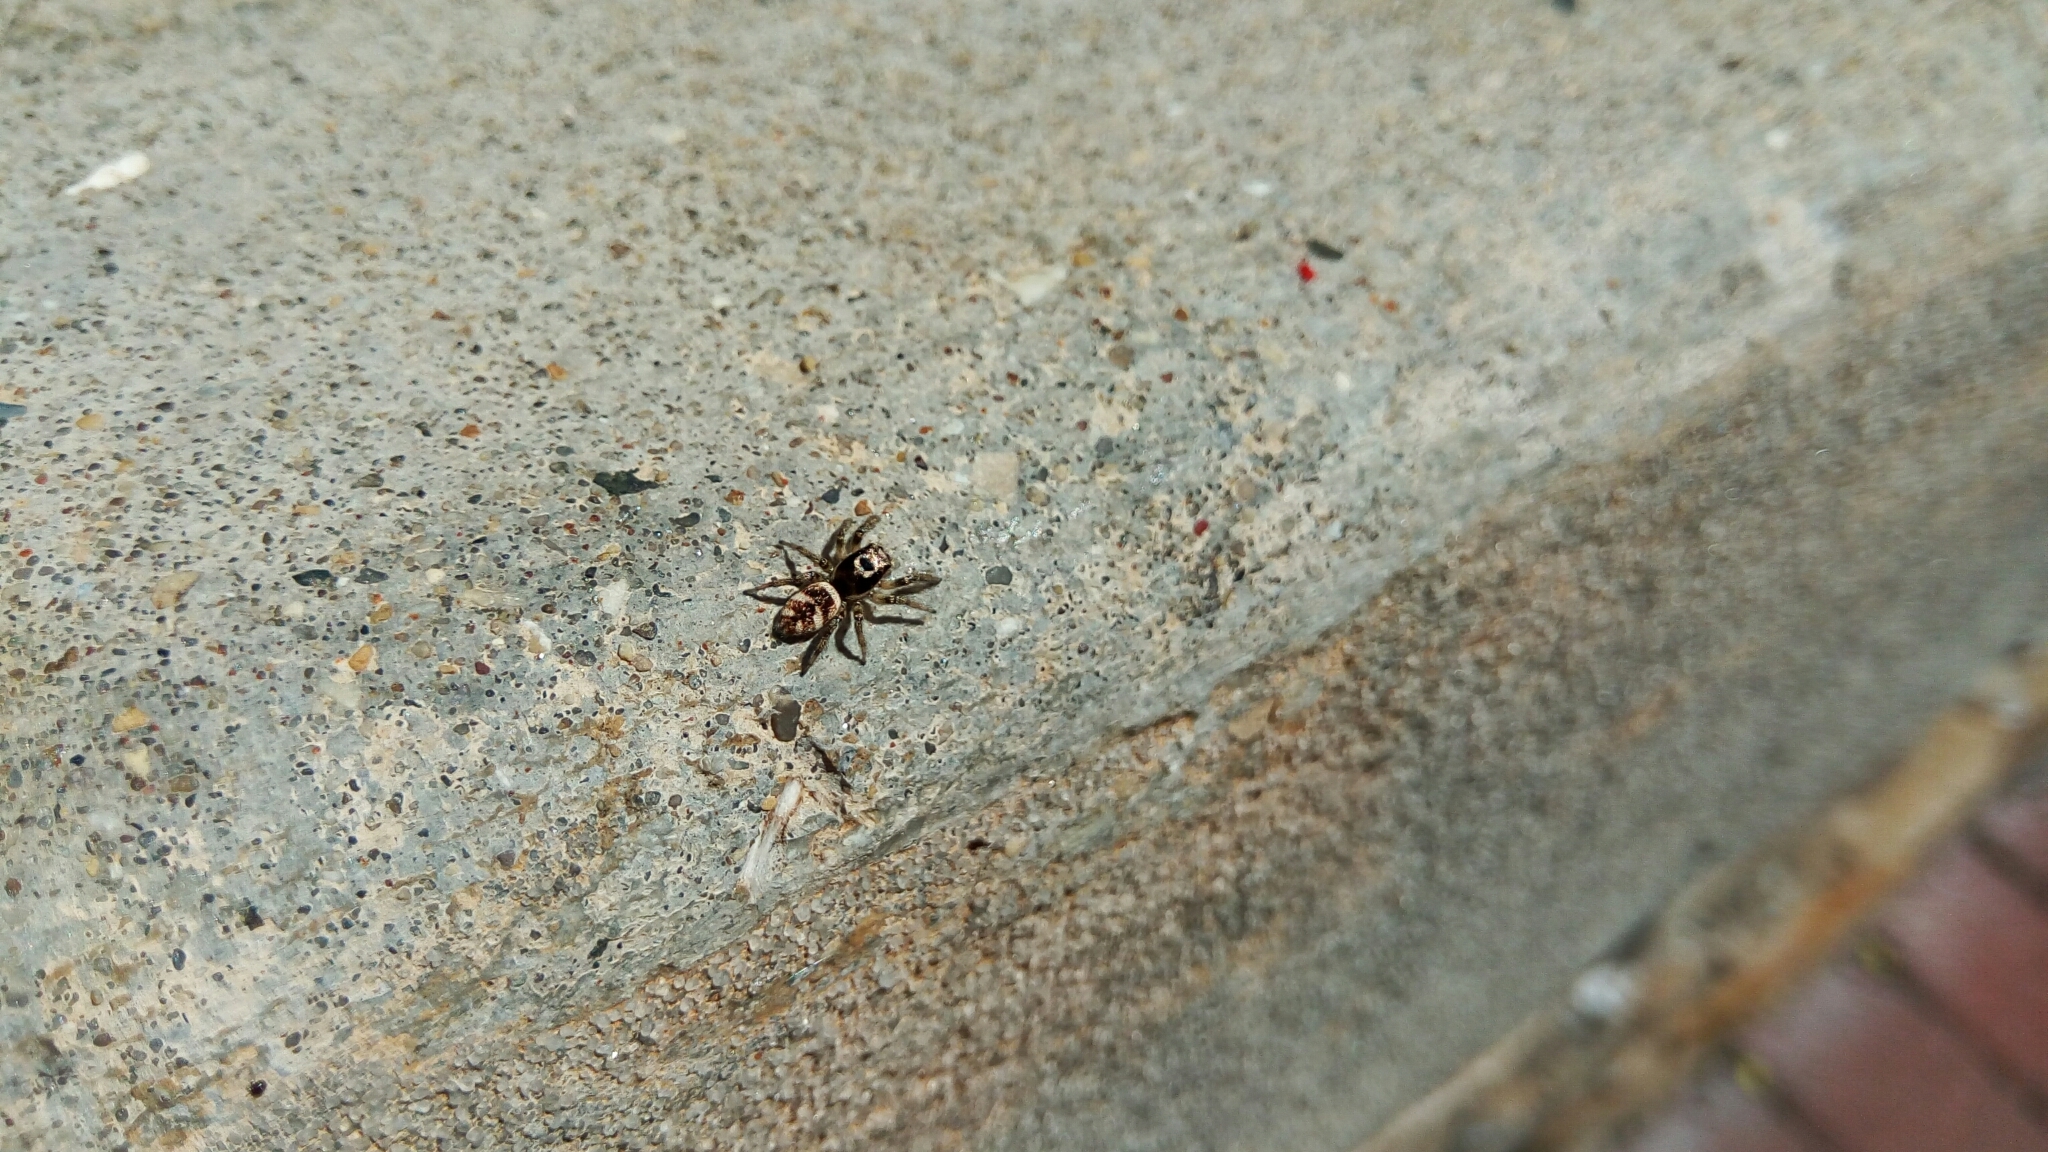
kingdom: Animalia
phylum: Arthropoda
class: Arachnida
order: Araneae
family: Salticidae
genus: Salticus
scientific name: Salticus scenicus
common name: Zebra jumper
